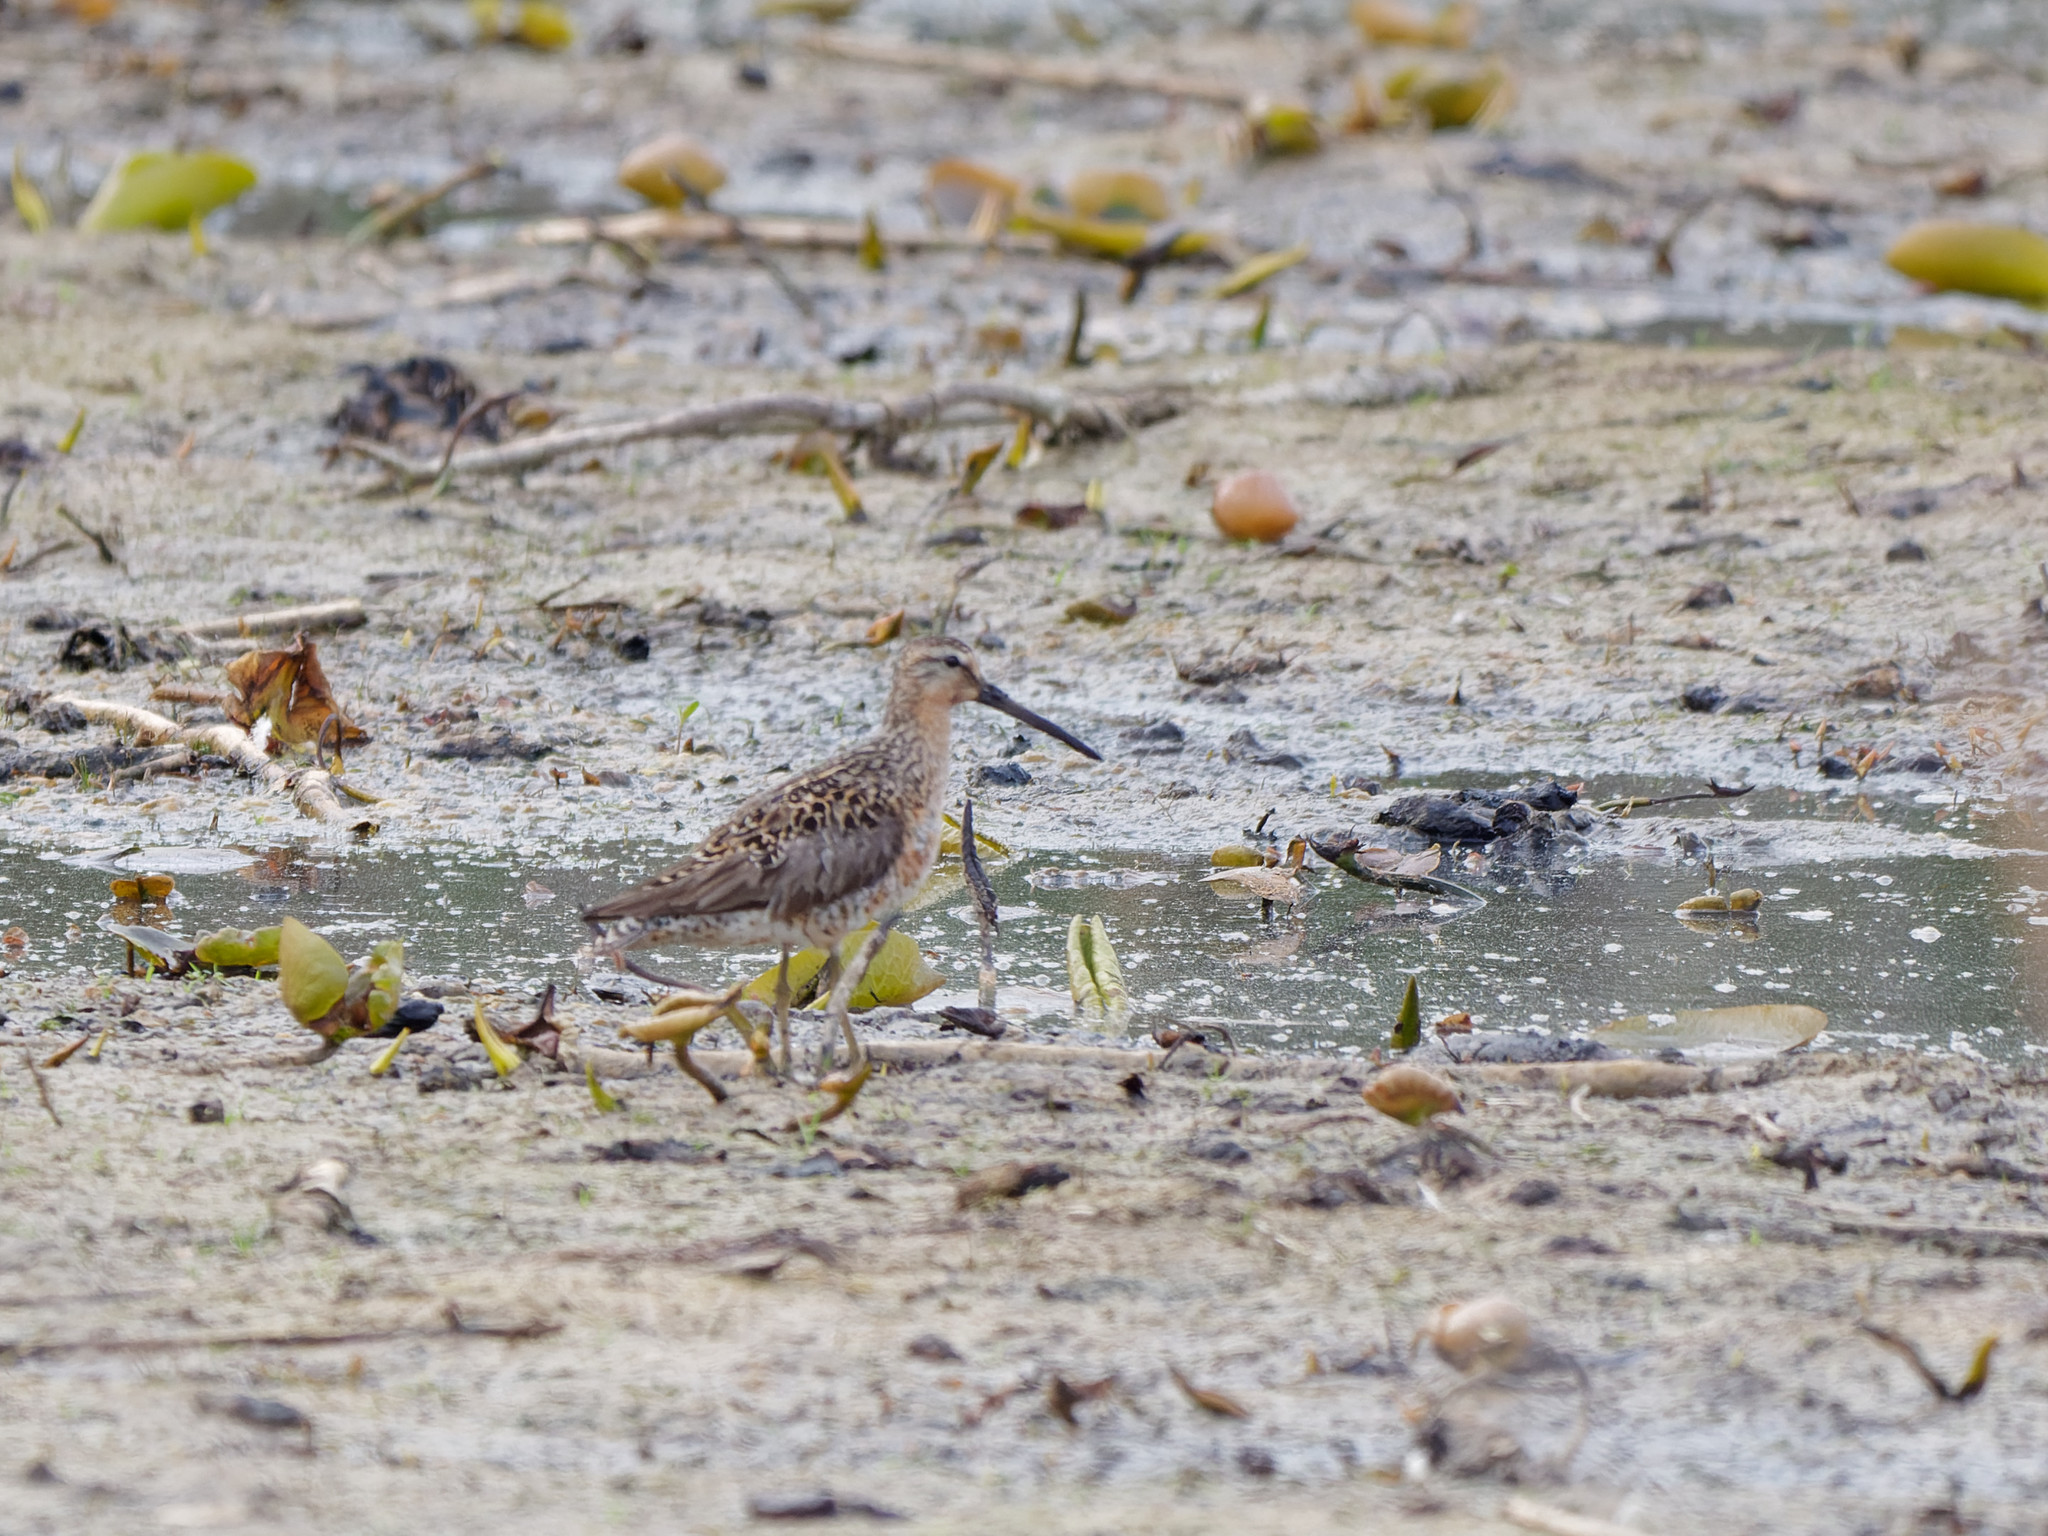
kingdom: Animalia
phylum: Chordata
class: Aves
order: Charadriiformes
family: Scolopacidae
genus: Limnodromus
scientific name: Limnodromus griseus
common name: Short-billed dowitcher
